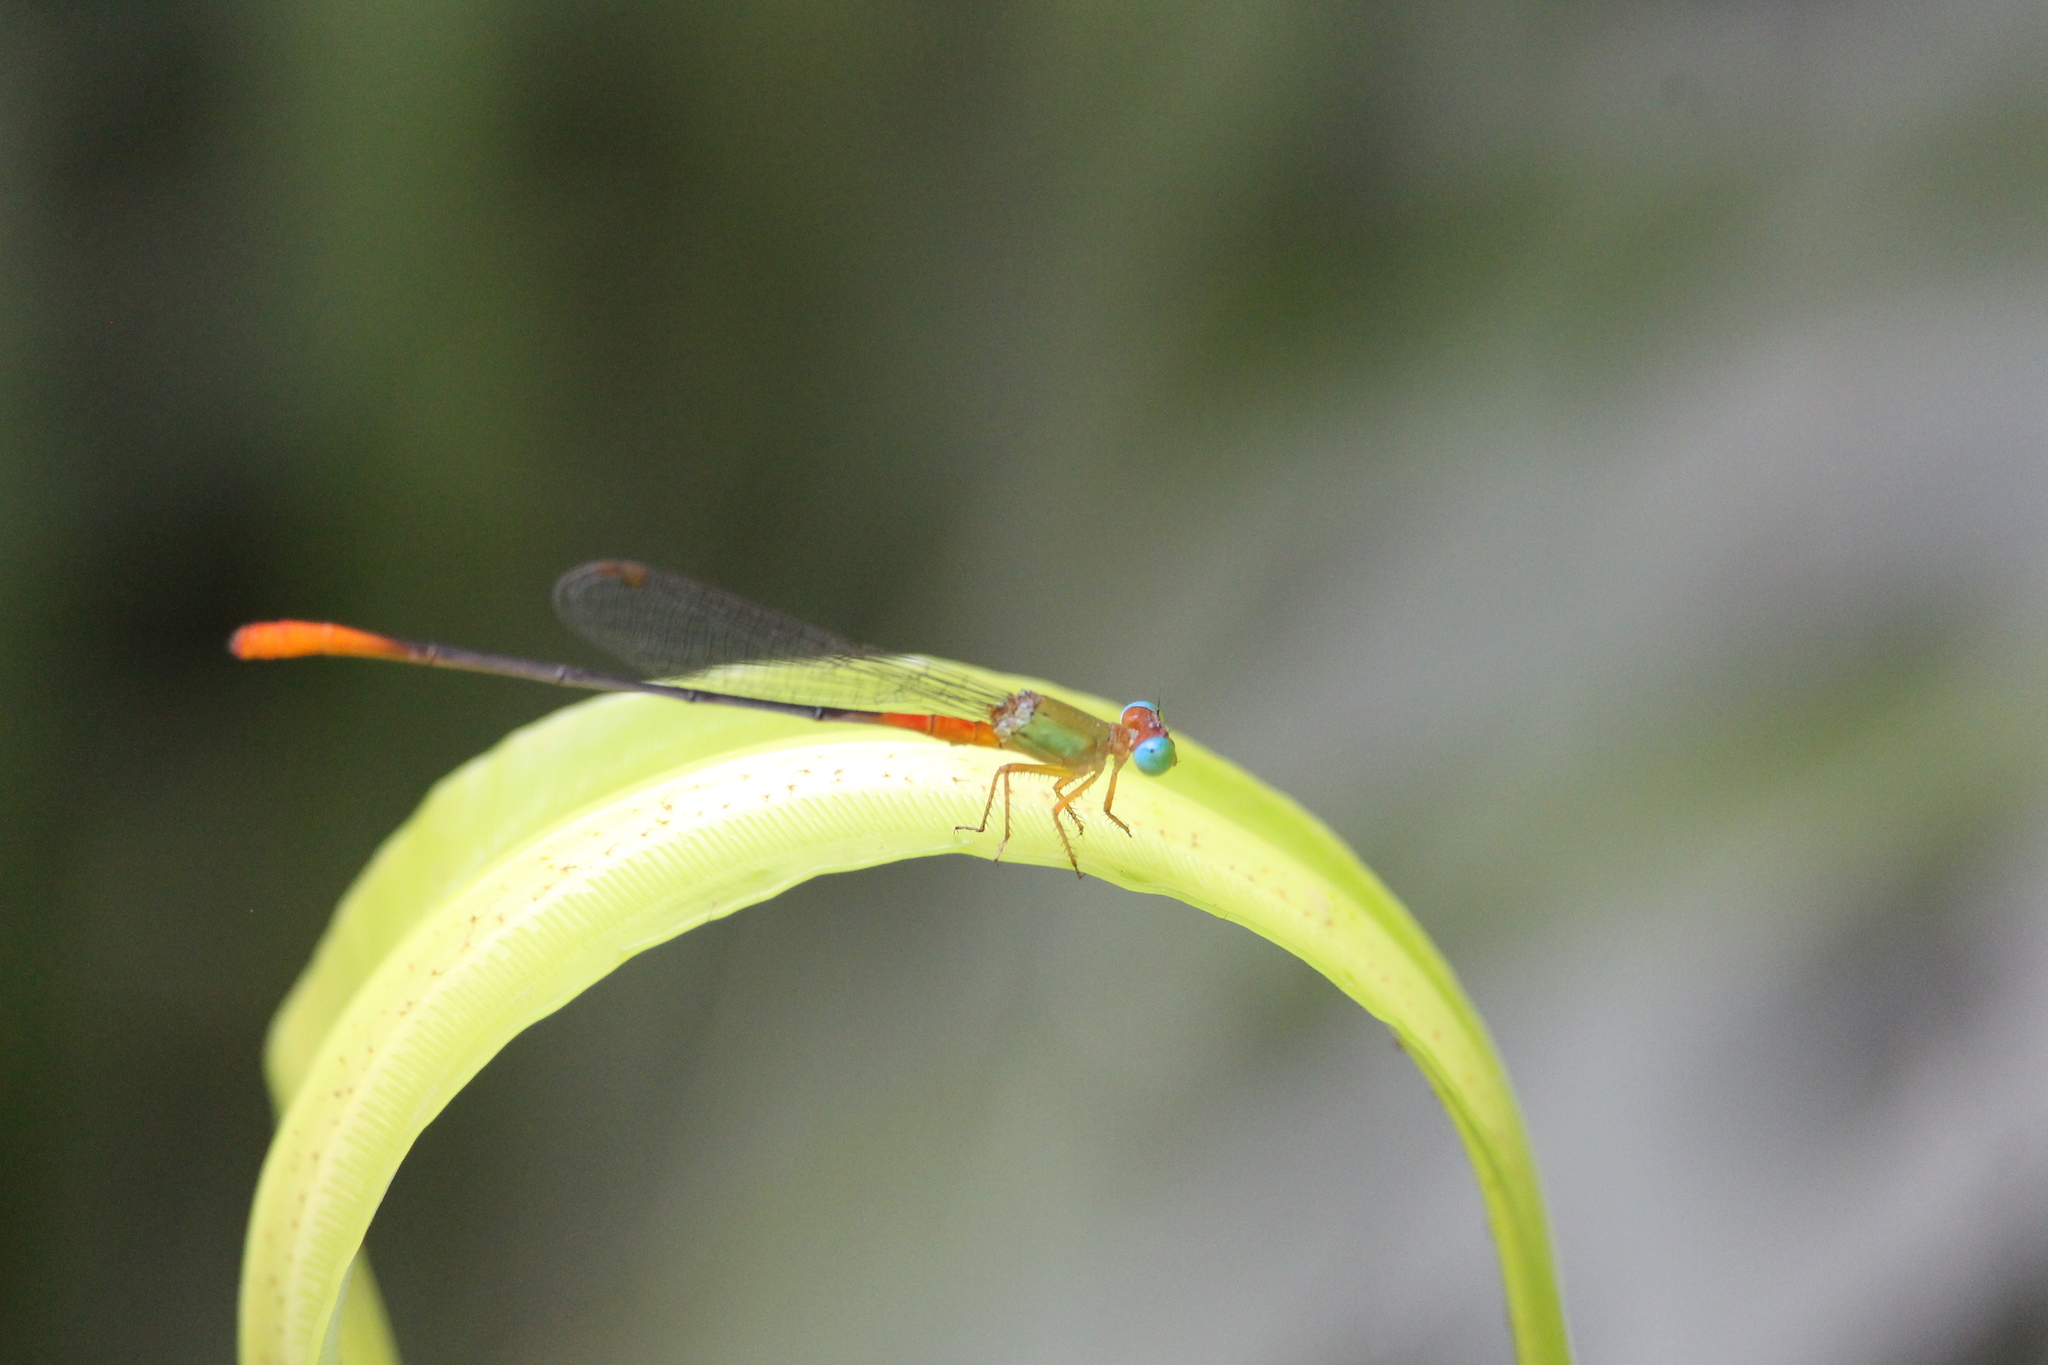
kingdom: Animalia
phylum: Arthropoda
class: Insecta
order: Odonata
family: Coenagrionidae
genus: Ceriagrion
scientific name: Ceriagrion cerinorubellum
